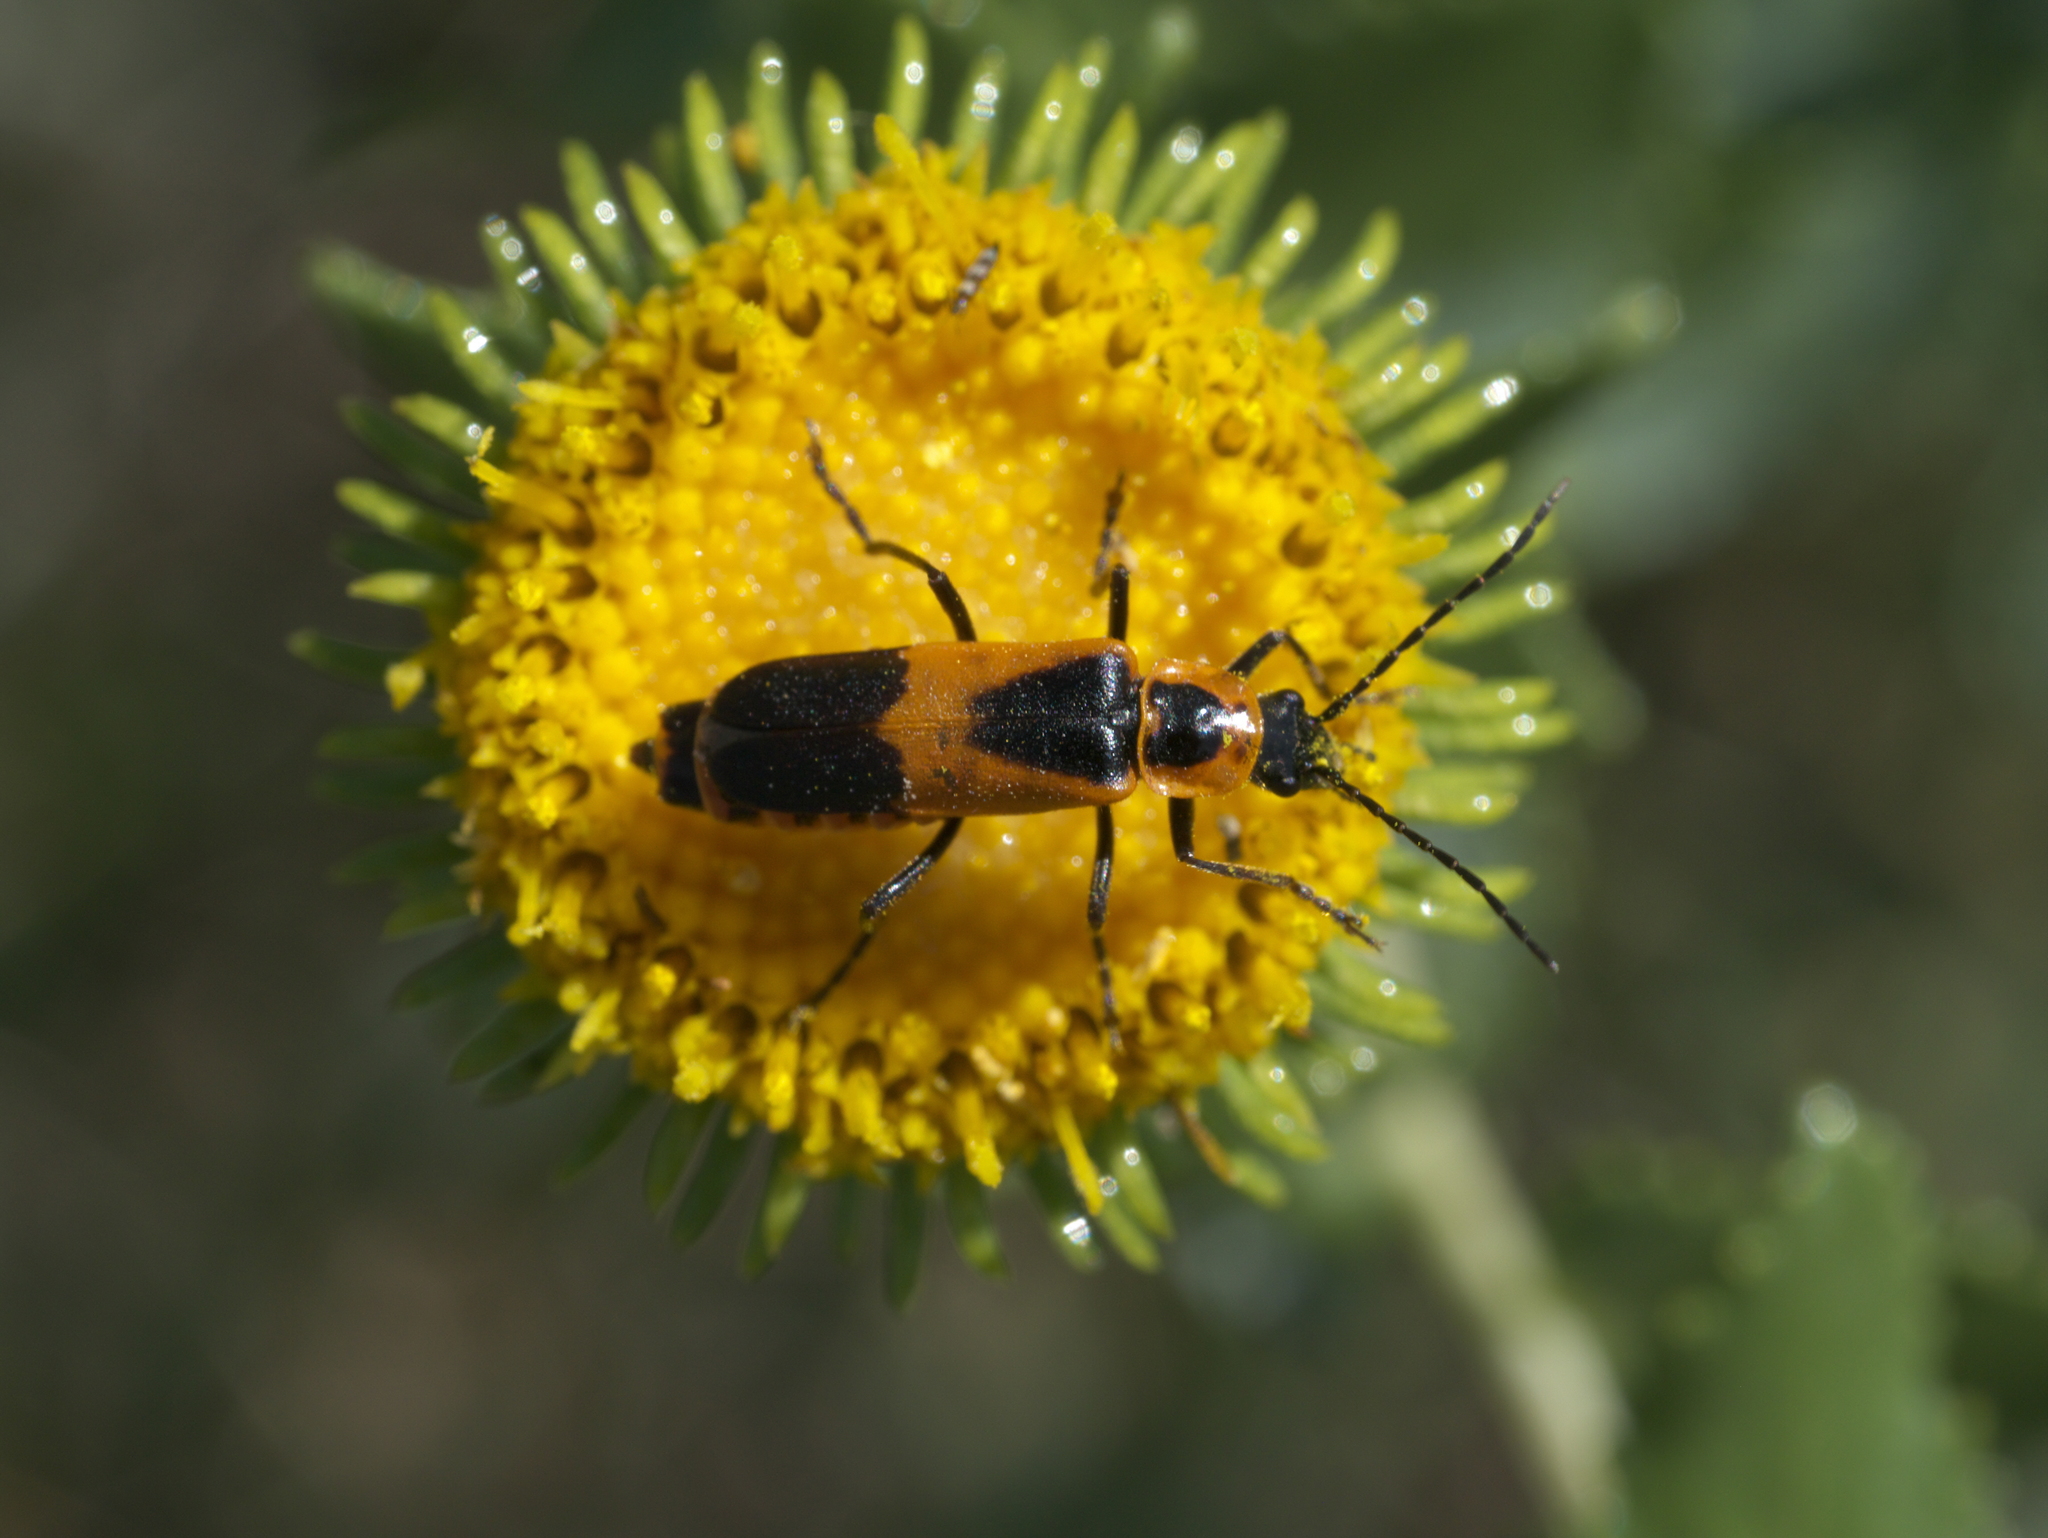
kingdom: Animalia
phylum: Arthropoda
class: Insecta
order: Coleoptera
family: Cantharidae
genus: Chauliognathus
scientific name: Chauliognathus basalis
